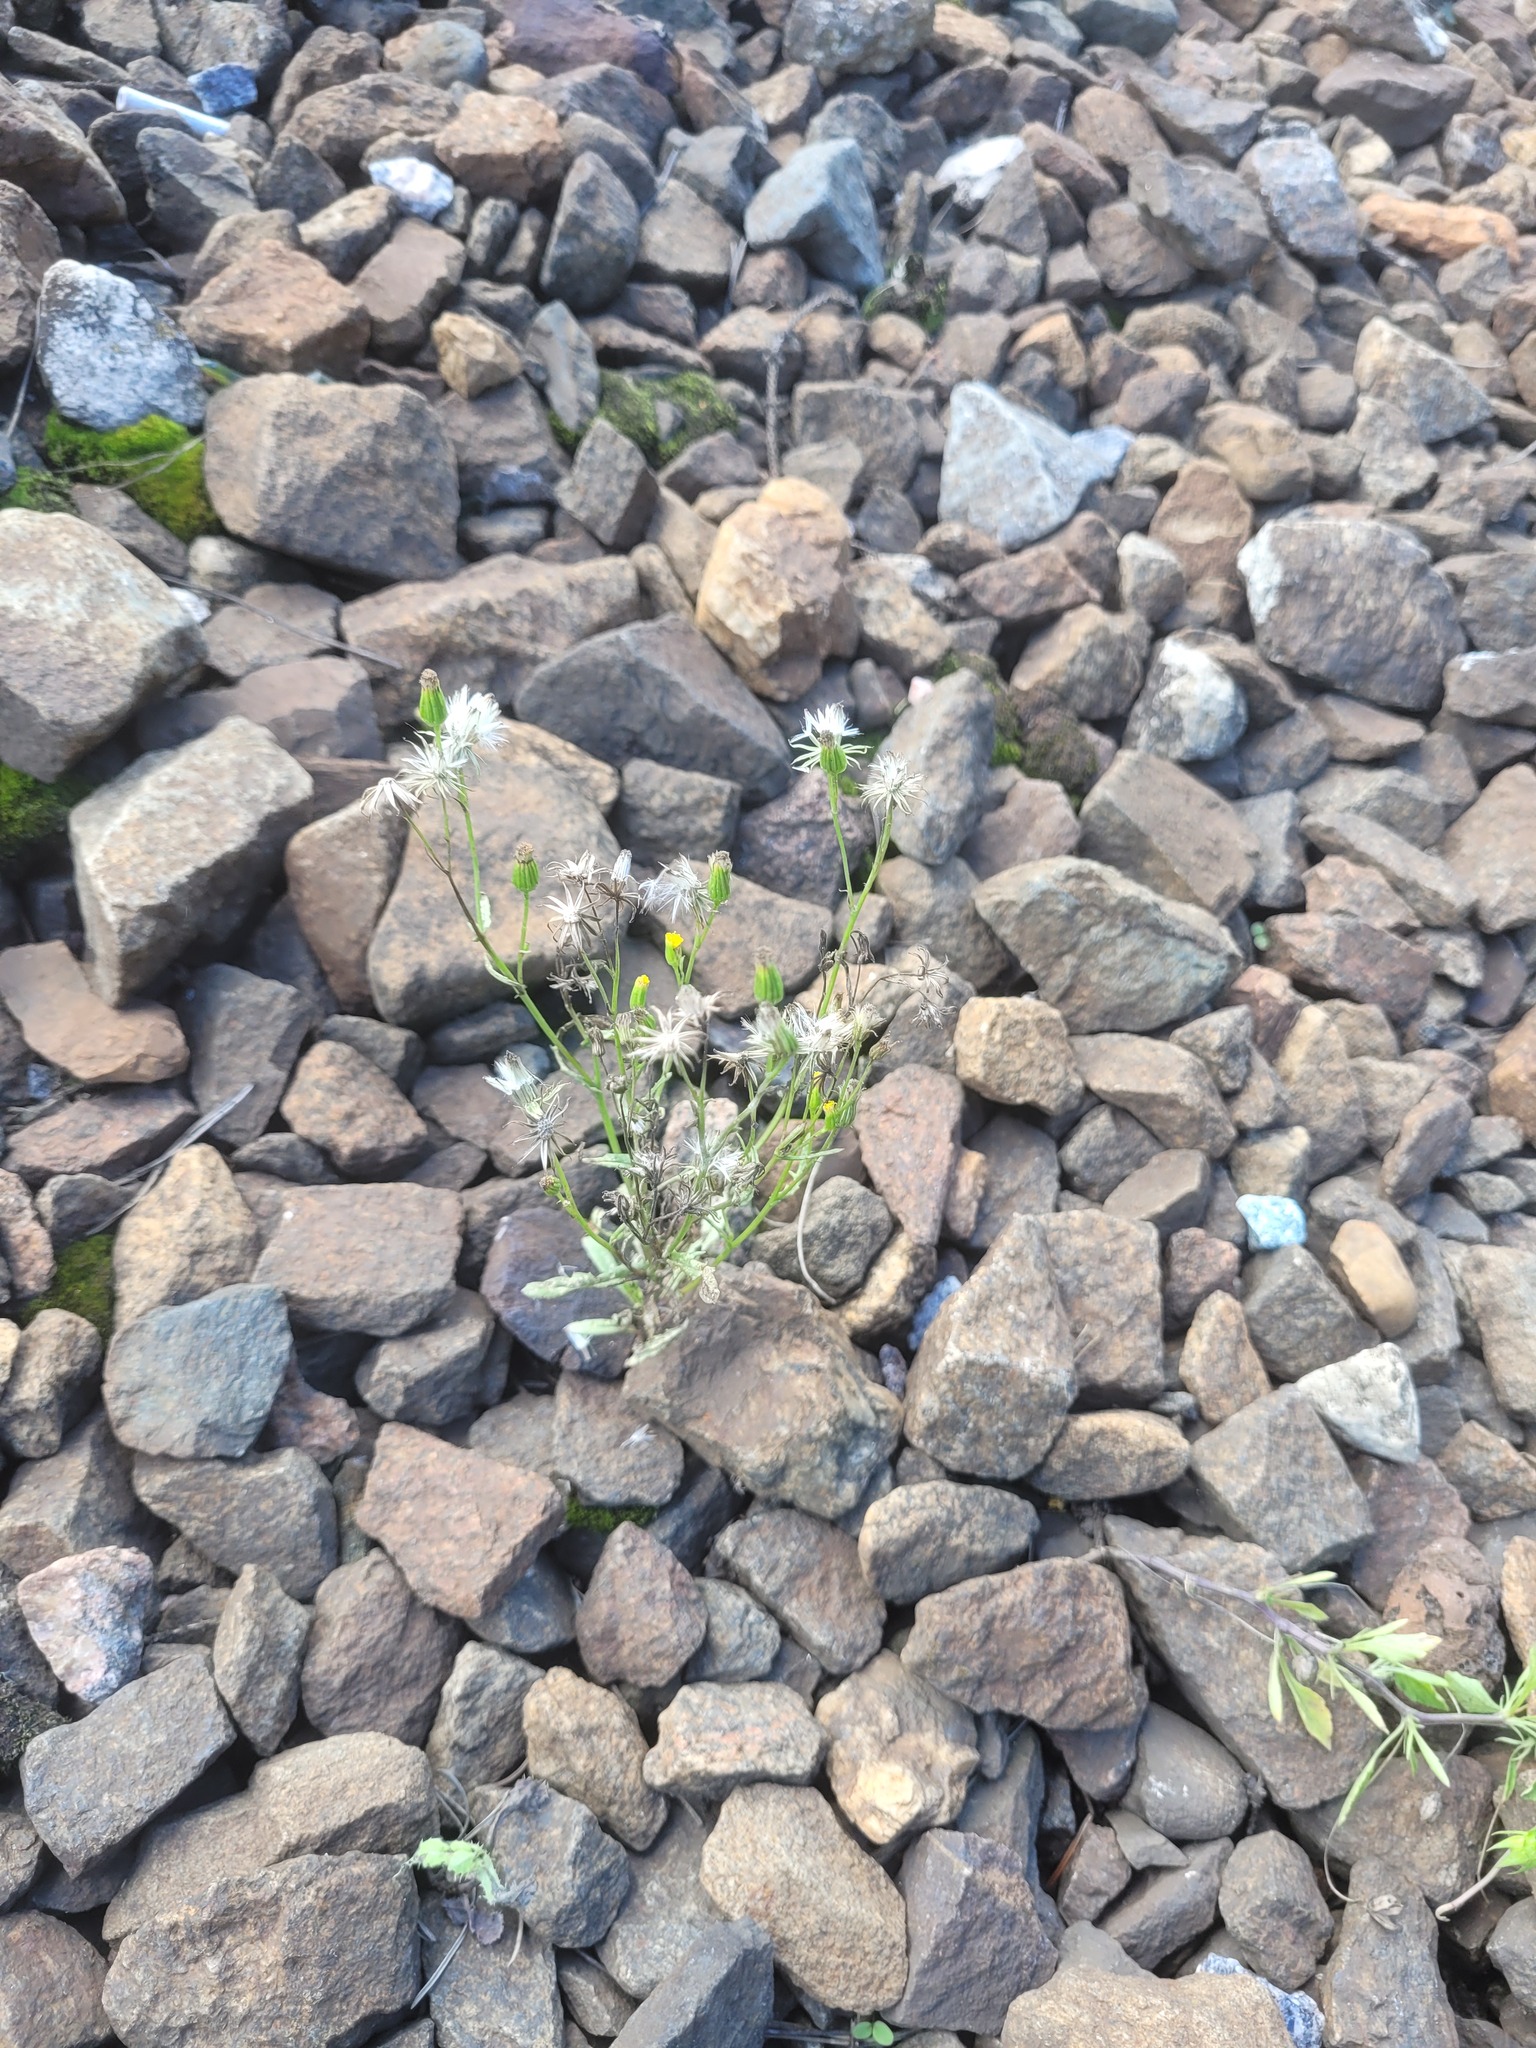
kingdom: Plantae
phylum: Tracheophyta
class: Magnoliopsida
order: Asterales
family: Asteraceae
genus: Senecio
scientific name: Senecio dubitabilis
